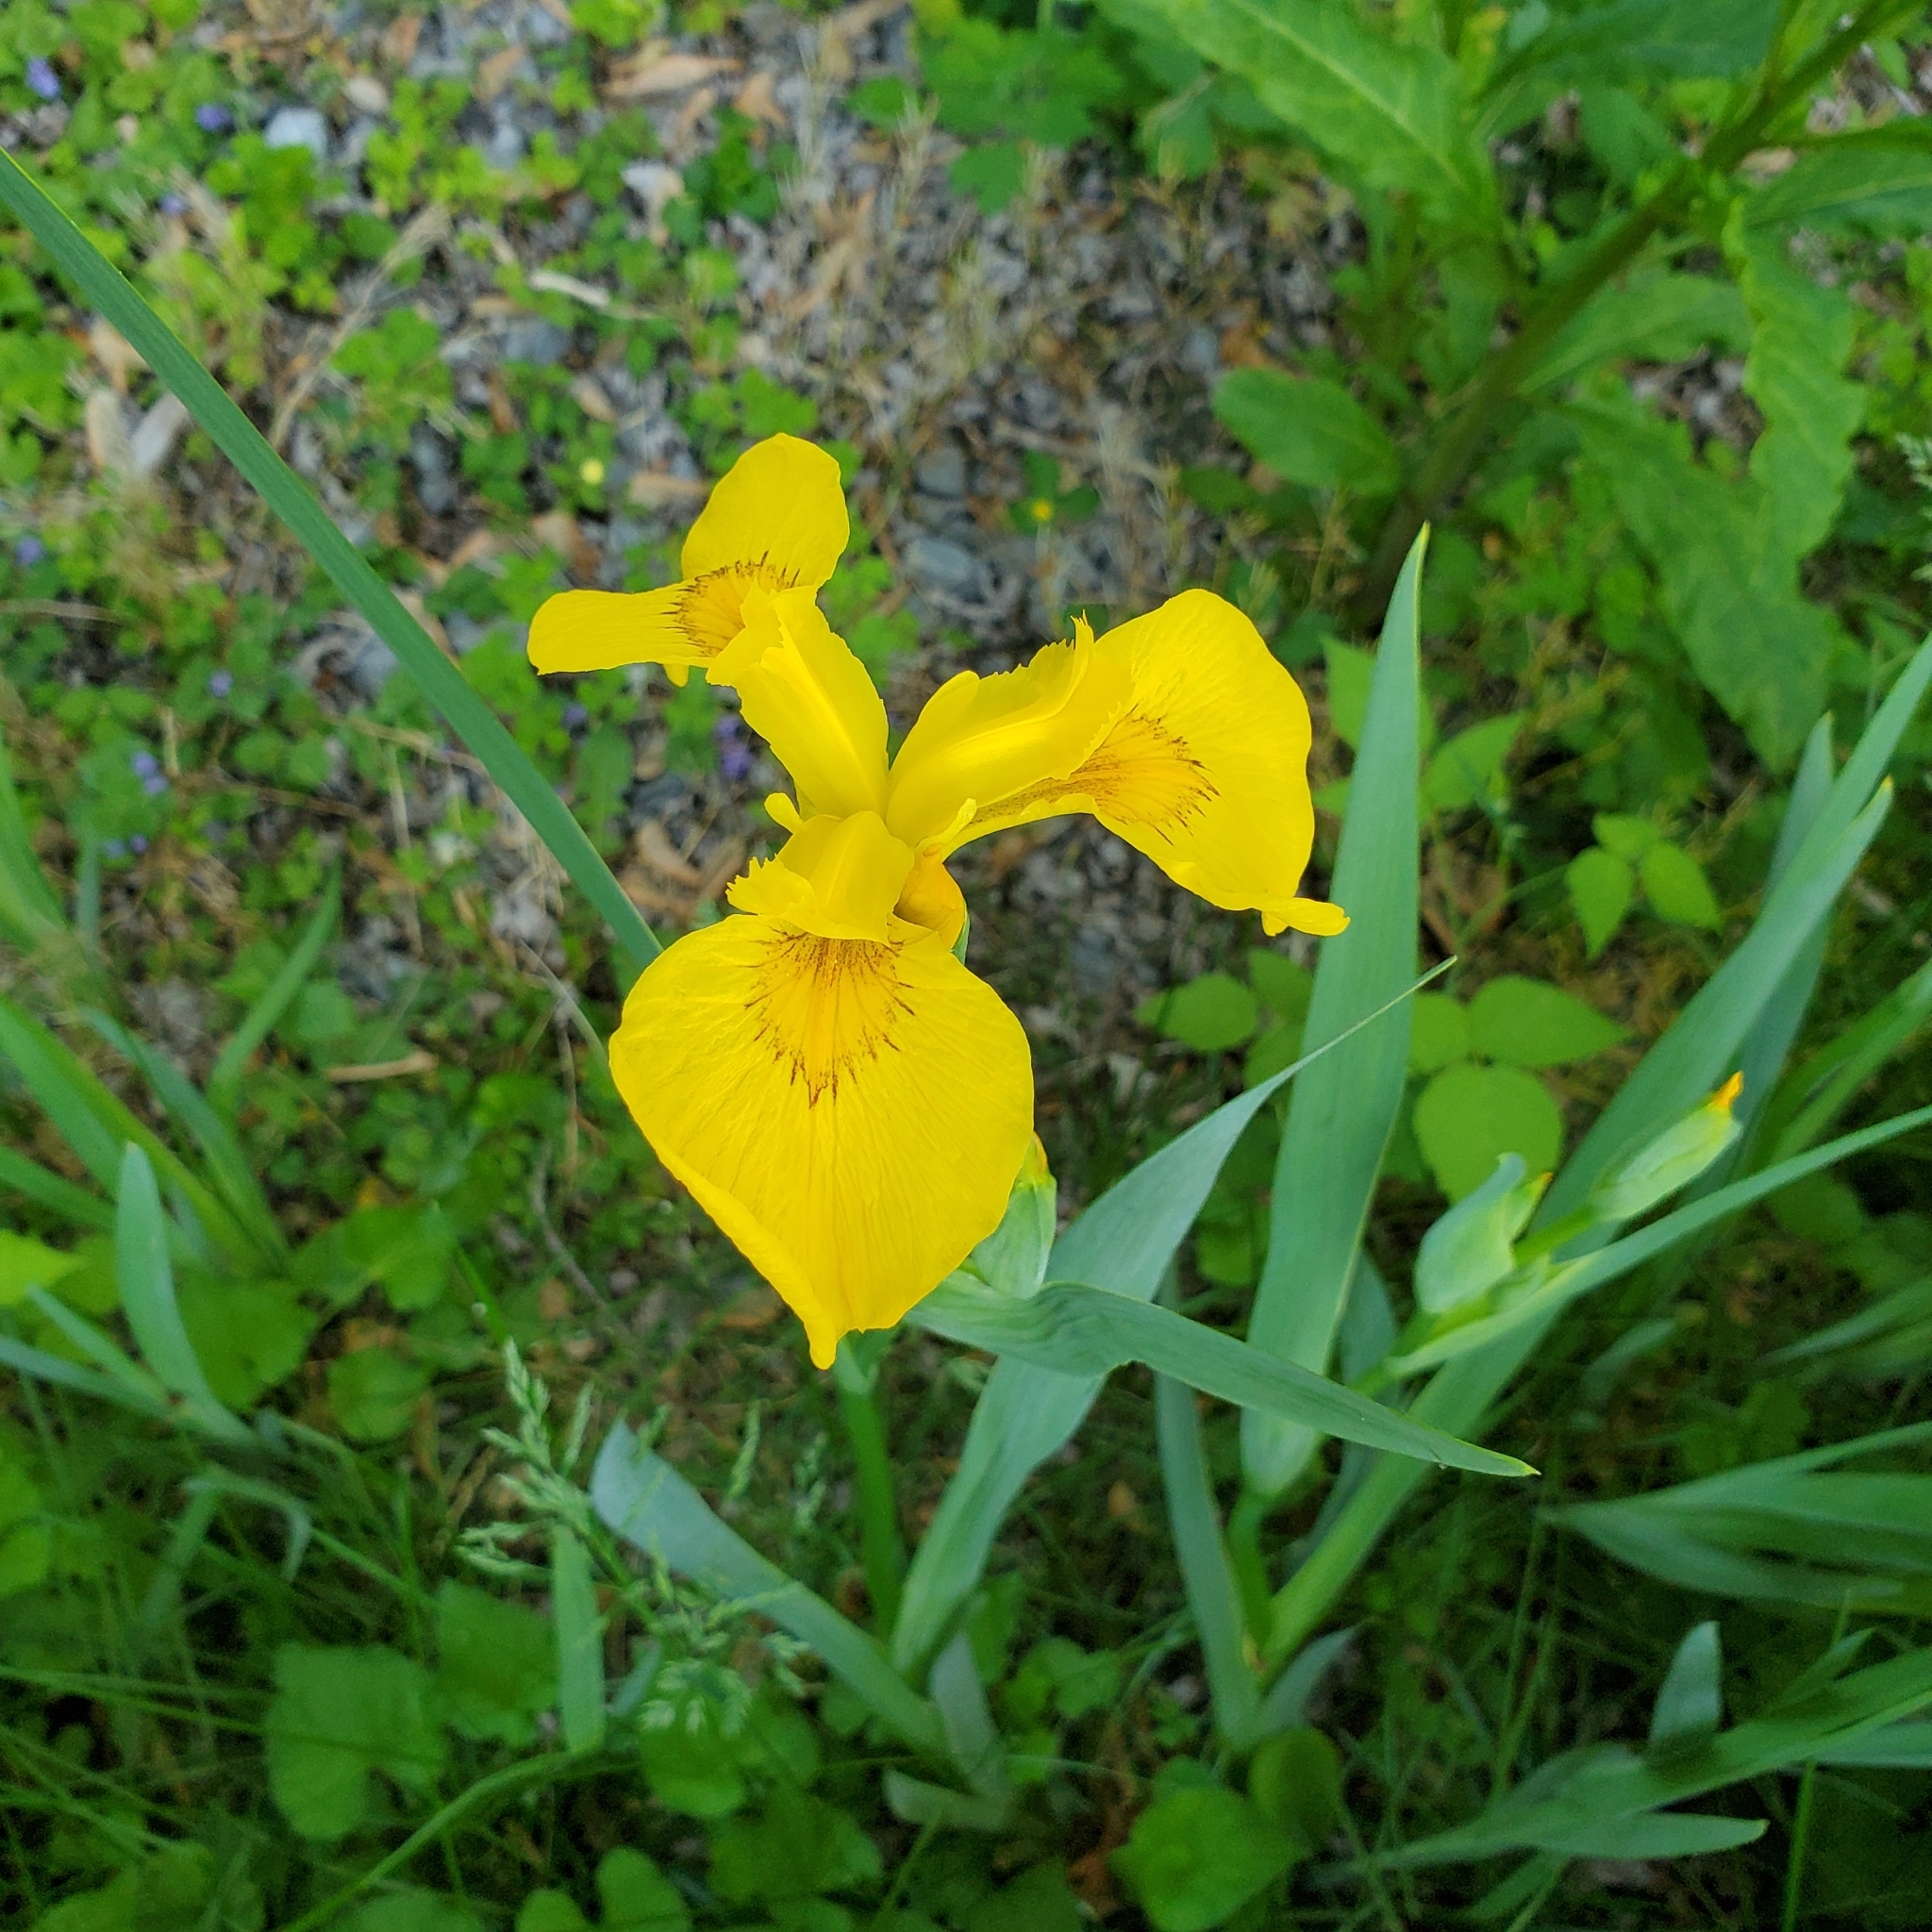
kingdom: Plantae
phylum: Tracheophyta
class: Liliopsida
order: Asparagales
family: Iridaceae
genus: Iris
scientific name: Iris pseudacorus
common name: Yellow flag
